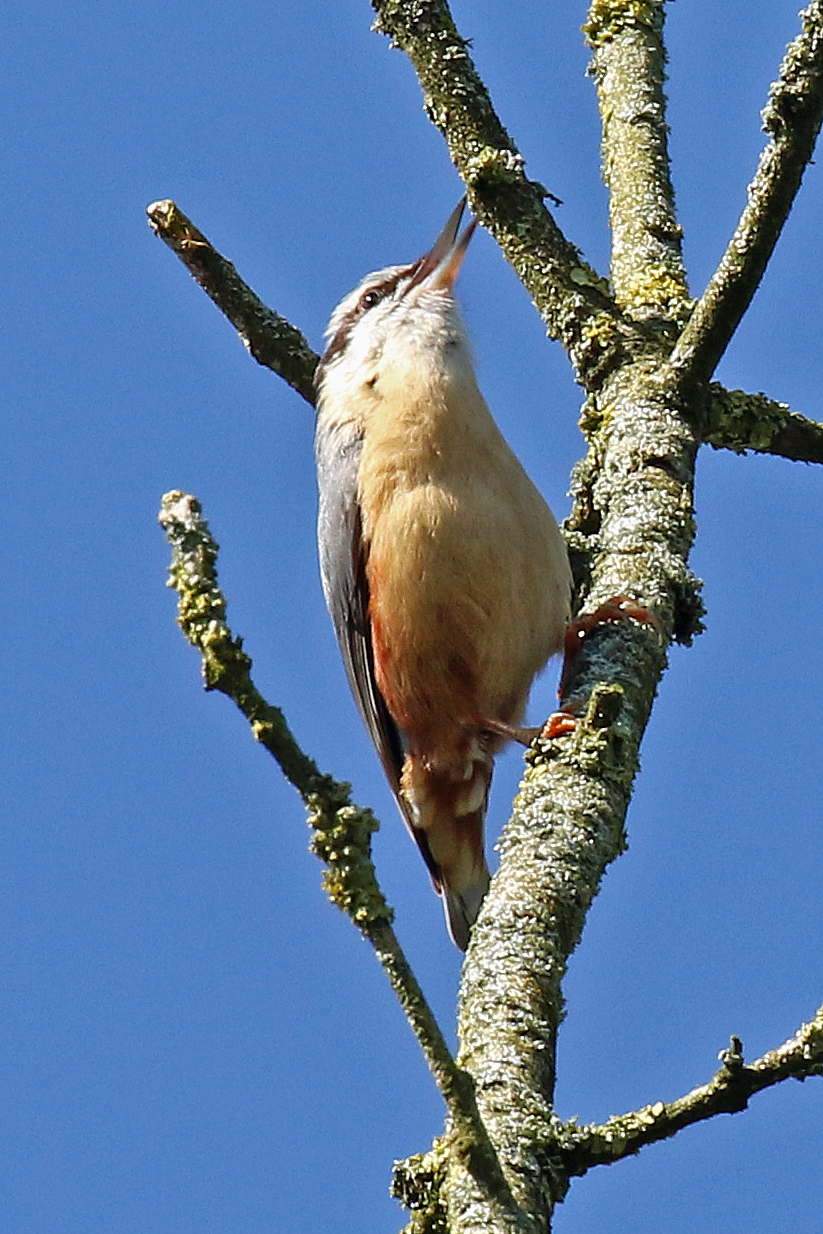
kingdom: Animalia
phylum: Chordata
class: Aves
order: Passeriformes
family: Sittidae
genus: Sitta
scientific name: Sitta europaea
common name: Eurasian nuthatch
